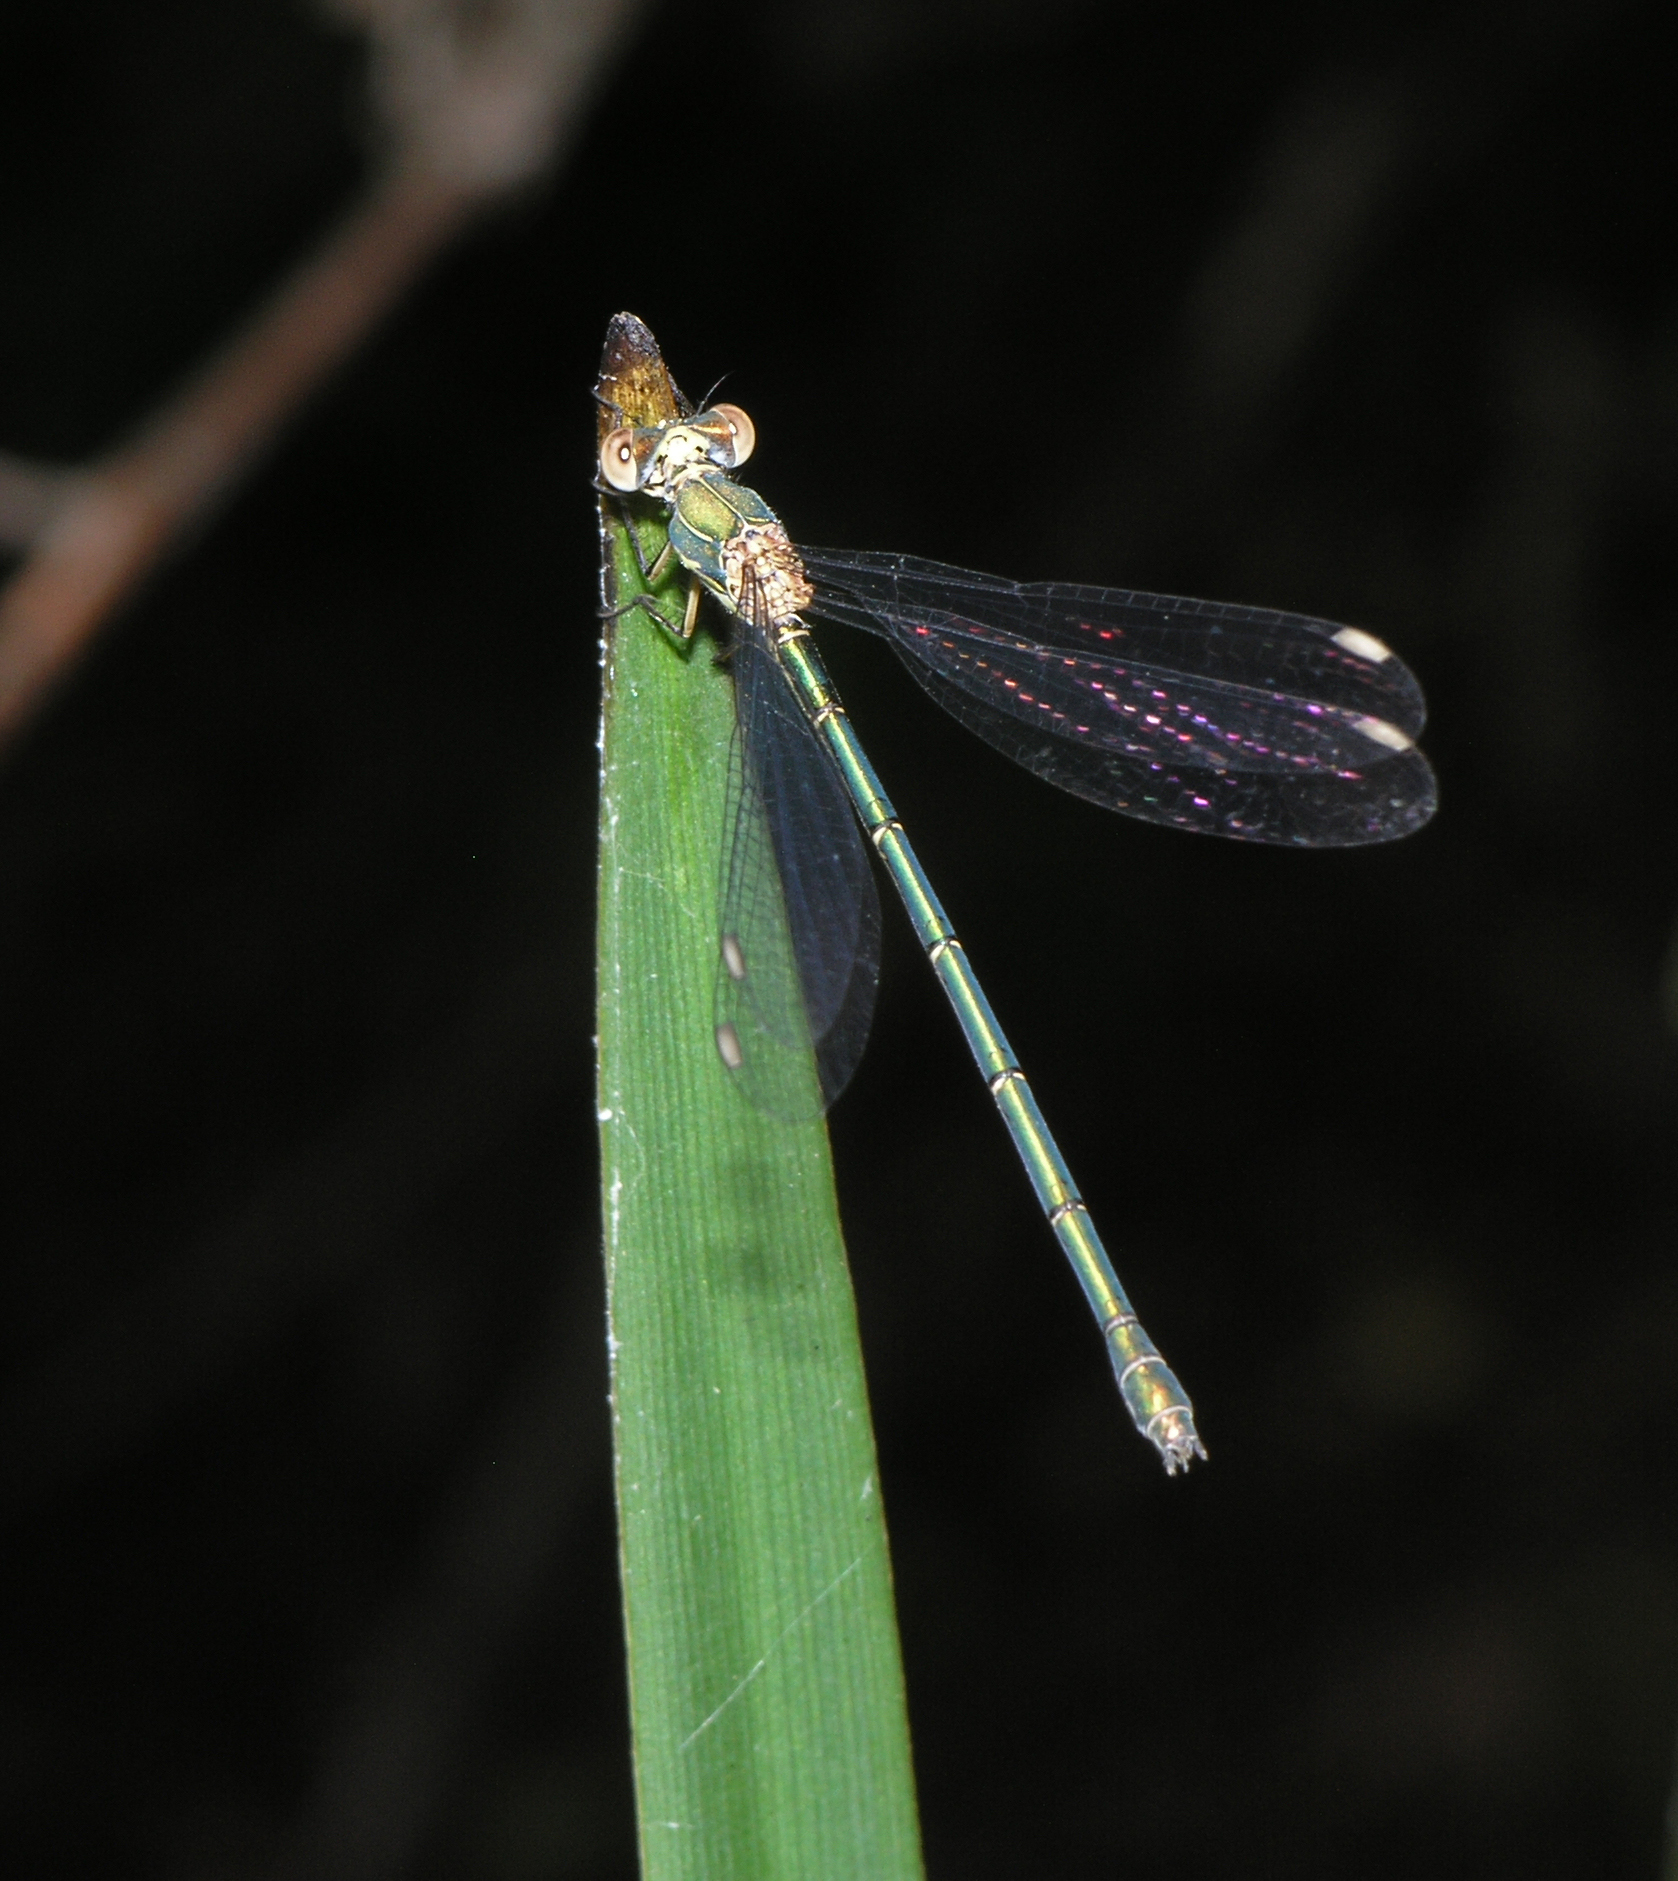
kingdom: Animalia
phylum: Arthropoda
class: Insecta
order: Odonata
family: Lestidae
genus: Chalcolestes
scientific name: Chalcolestes viridis
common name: Green emerald damselfly
